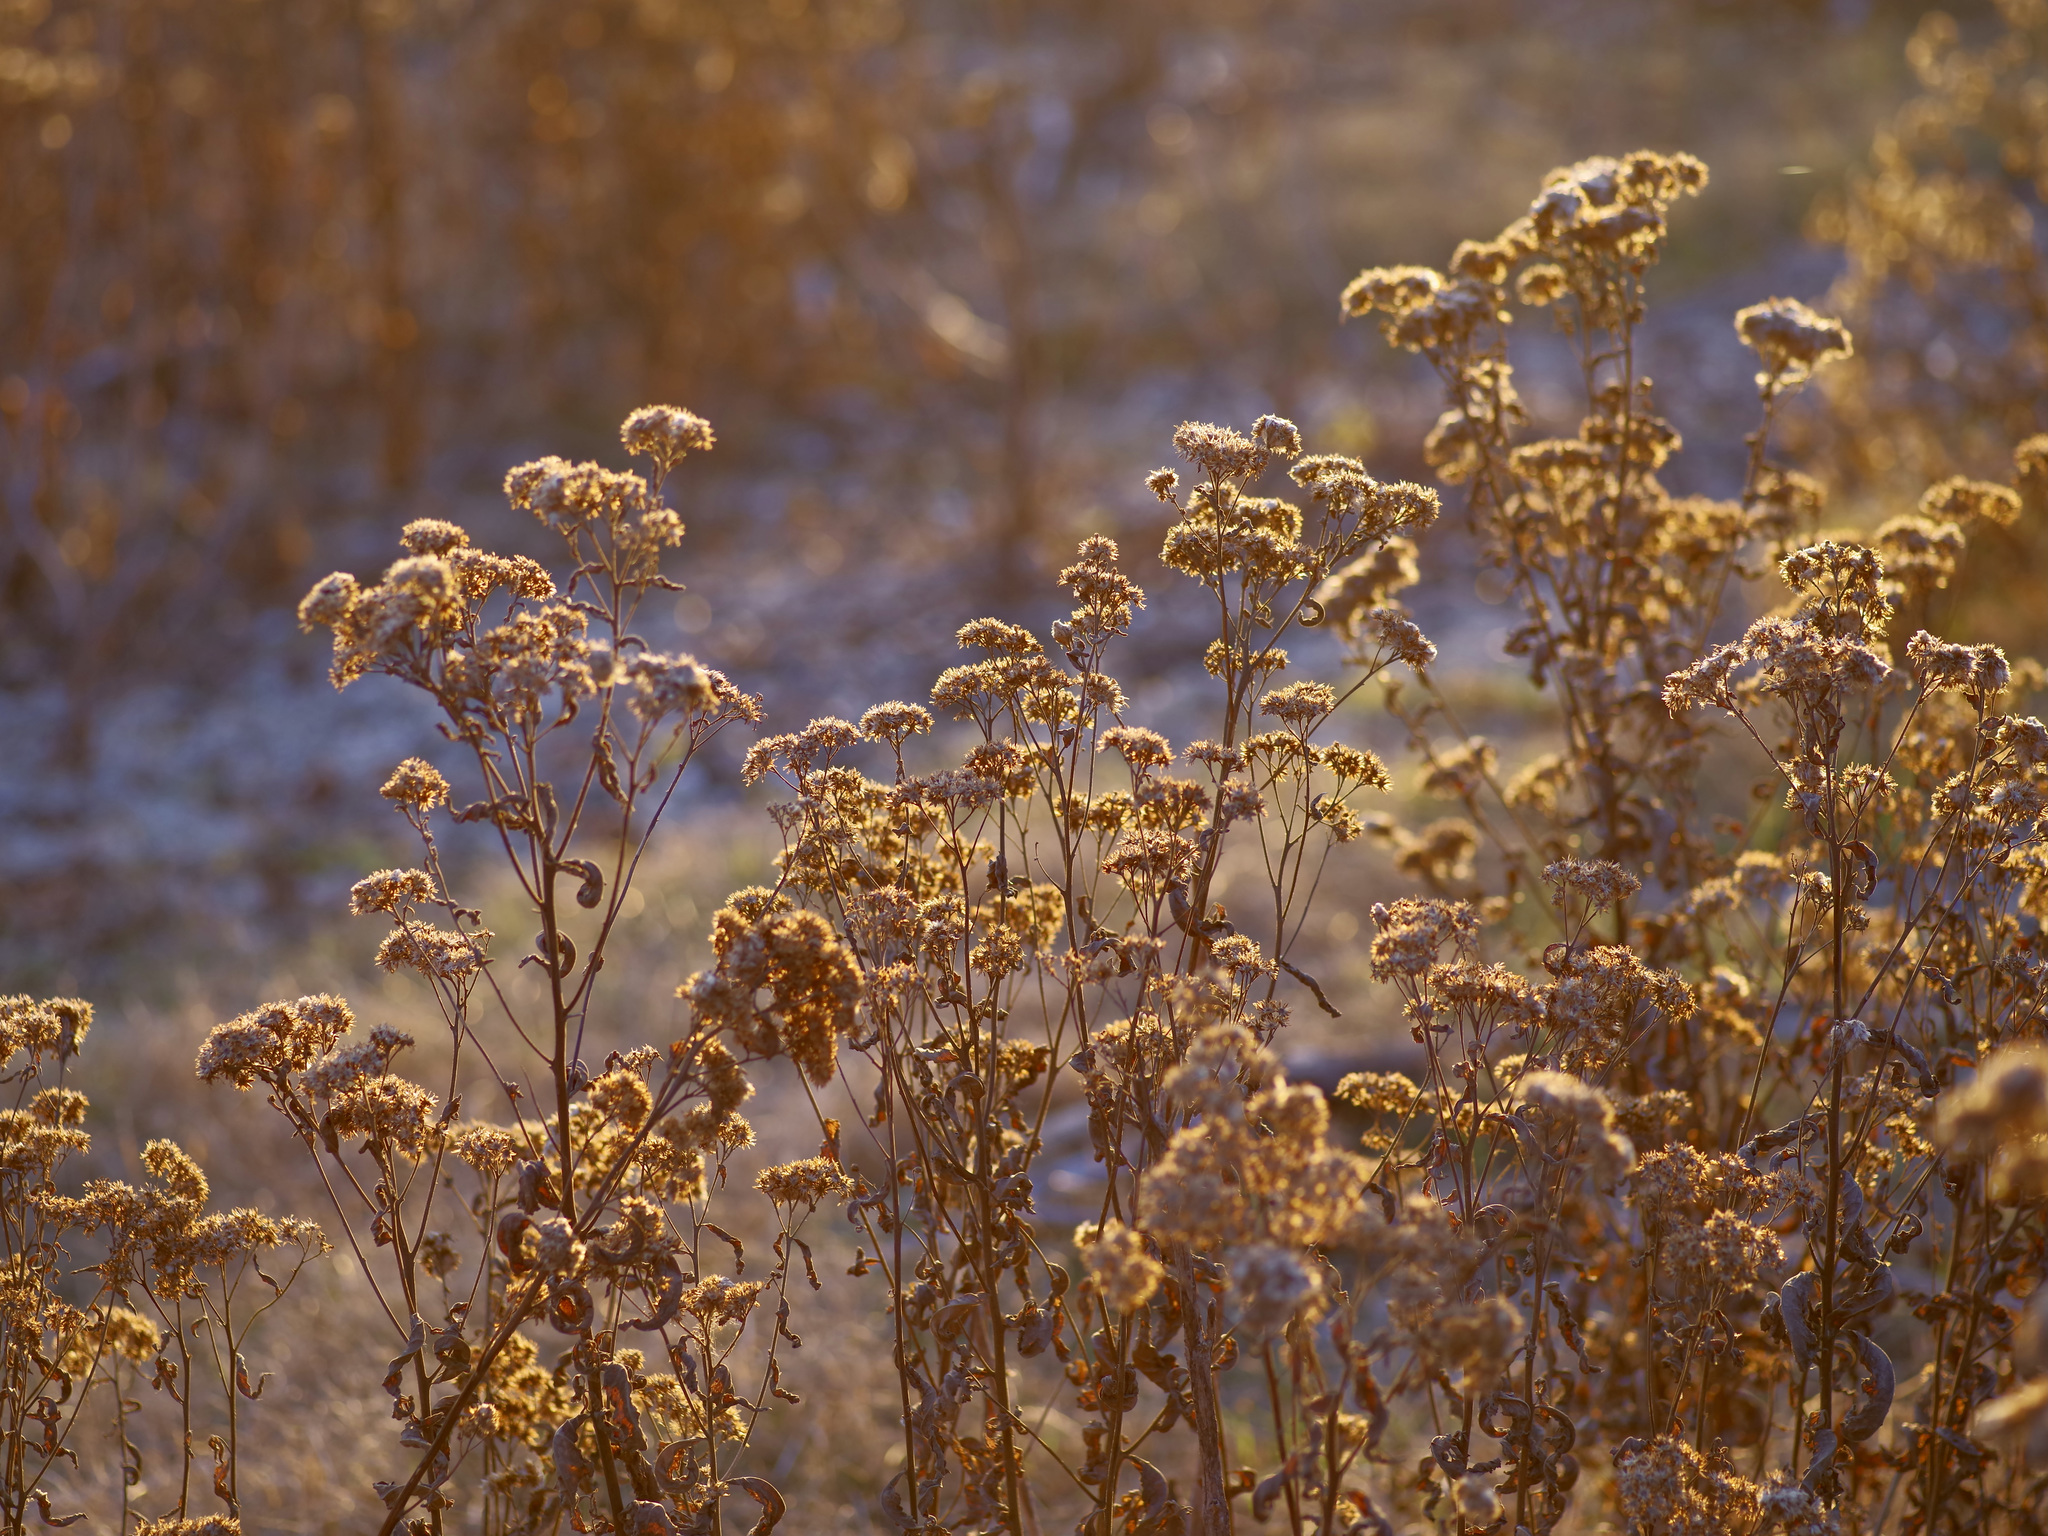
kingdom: Plantae
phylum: Tracheophyta
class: Magnoliopsida
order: Asterales
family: Asteraceae
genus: Pluchea
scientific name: Pluchea odorata
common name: Saltmarsh fleabane
